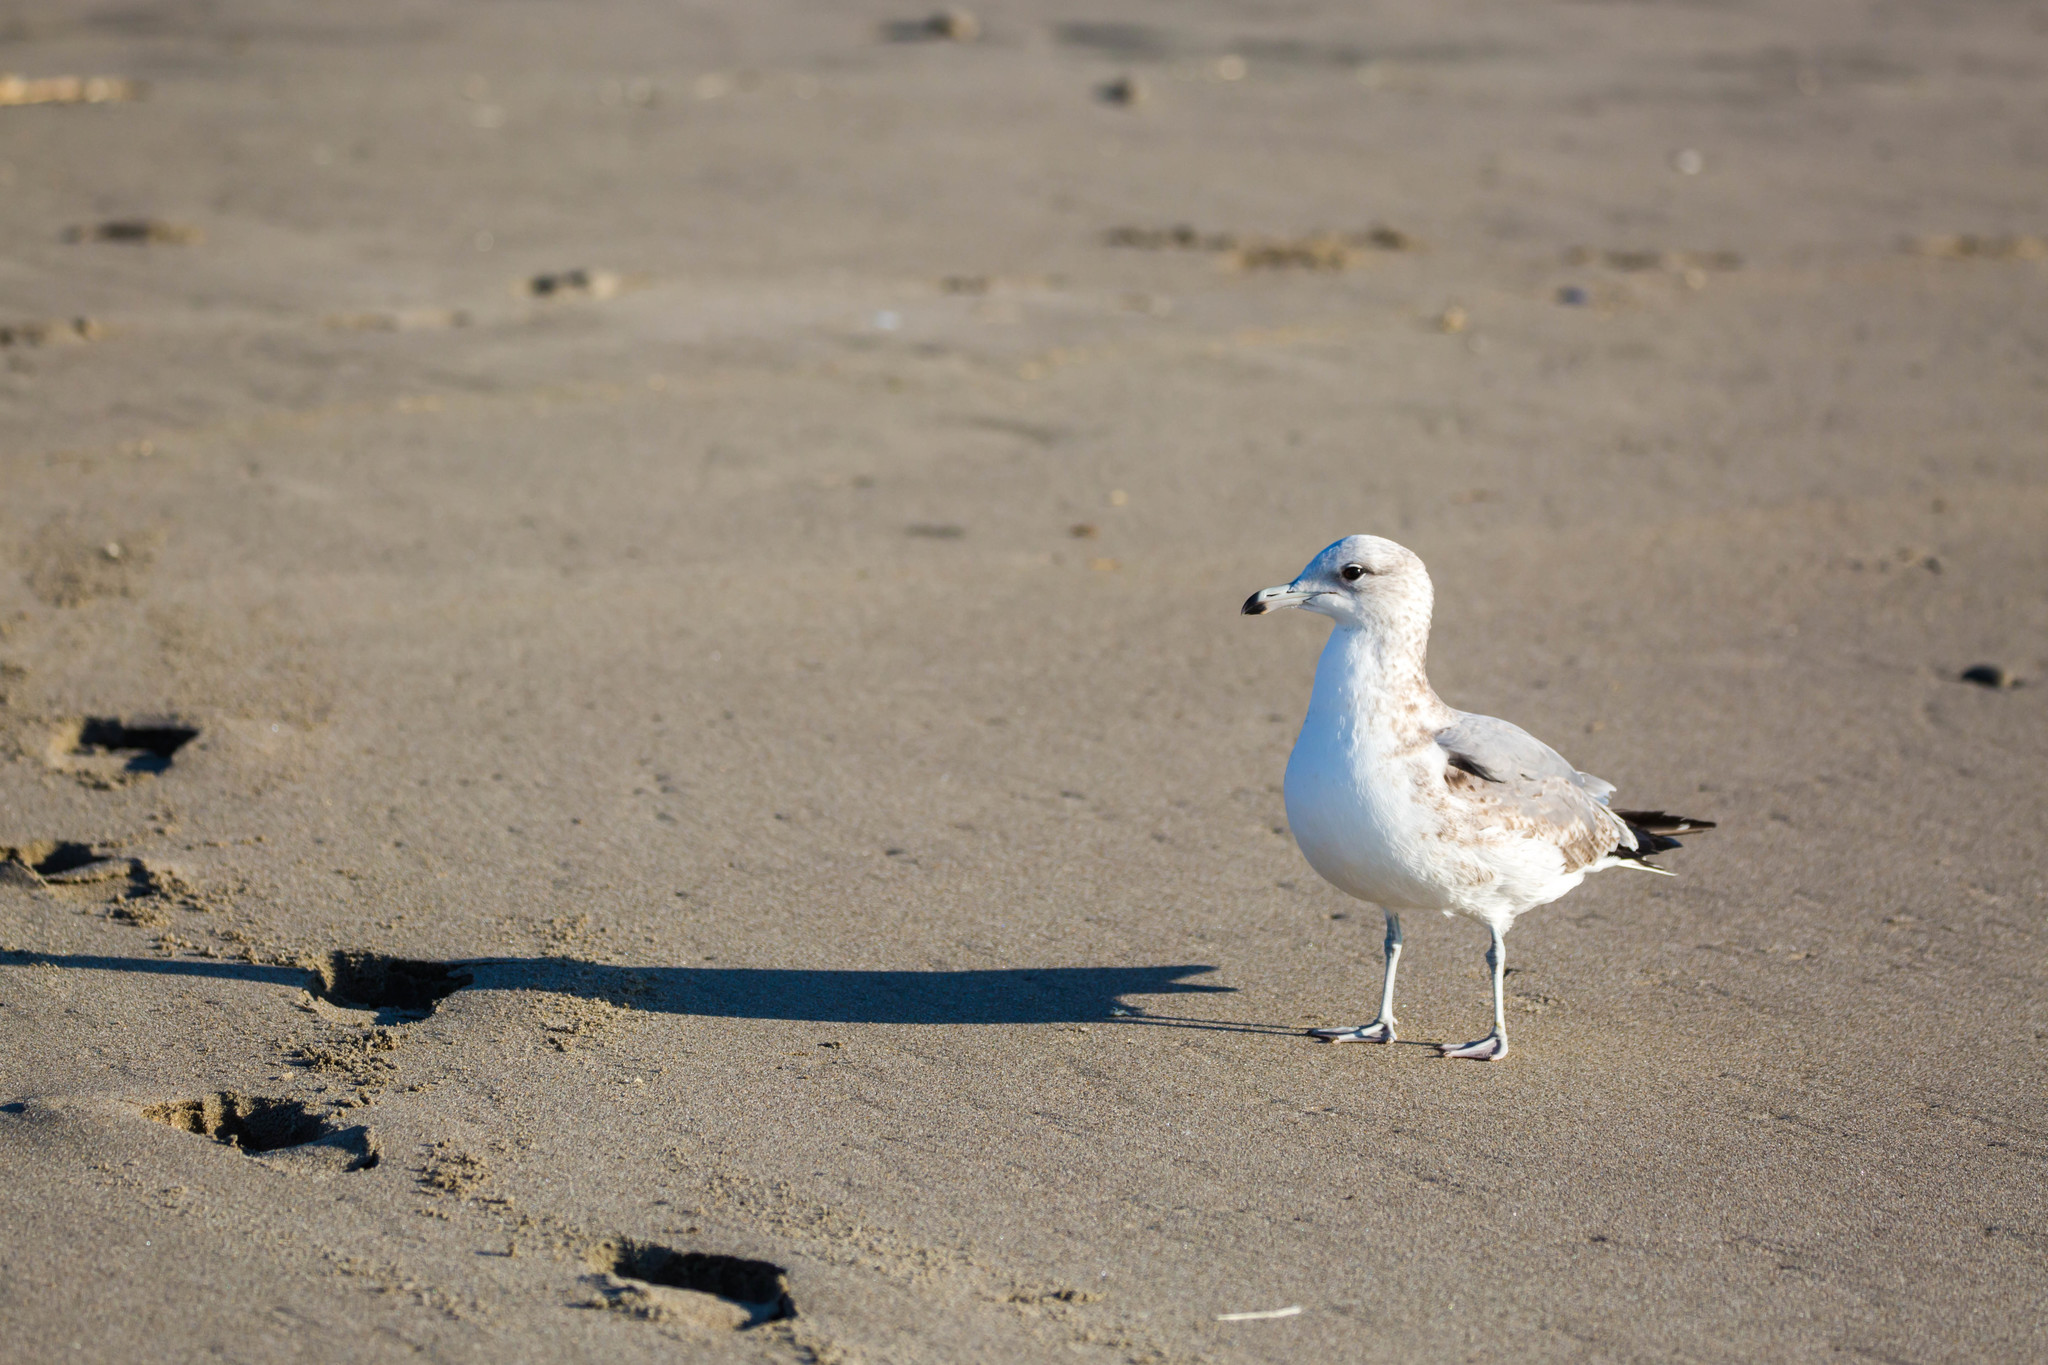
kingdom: Animalia
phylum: Chordata
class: Aves
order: Charadriiformes
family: Laridae
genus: Larus
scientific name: Larus californicus
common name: California gull
